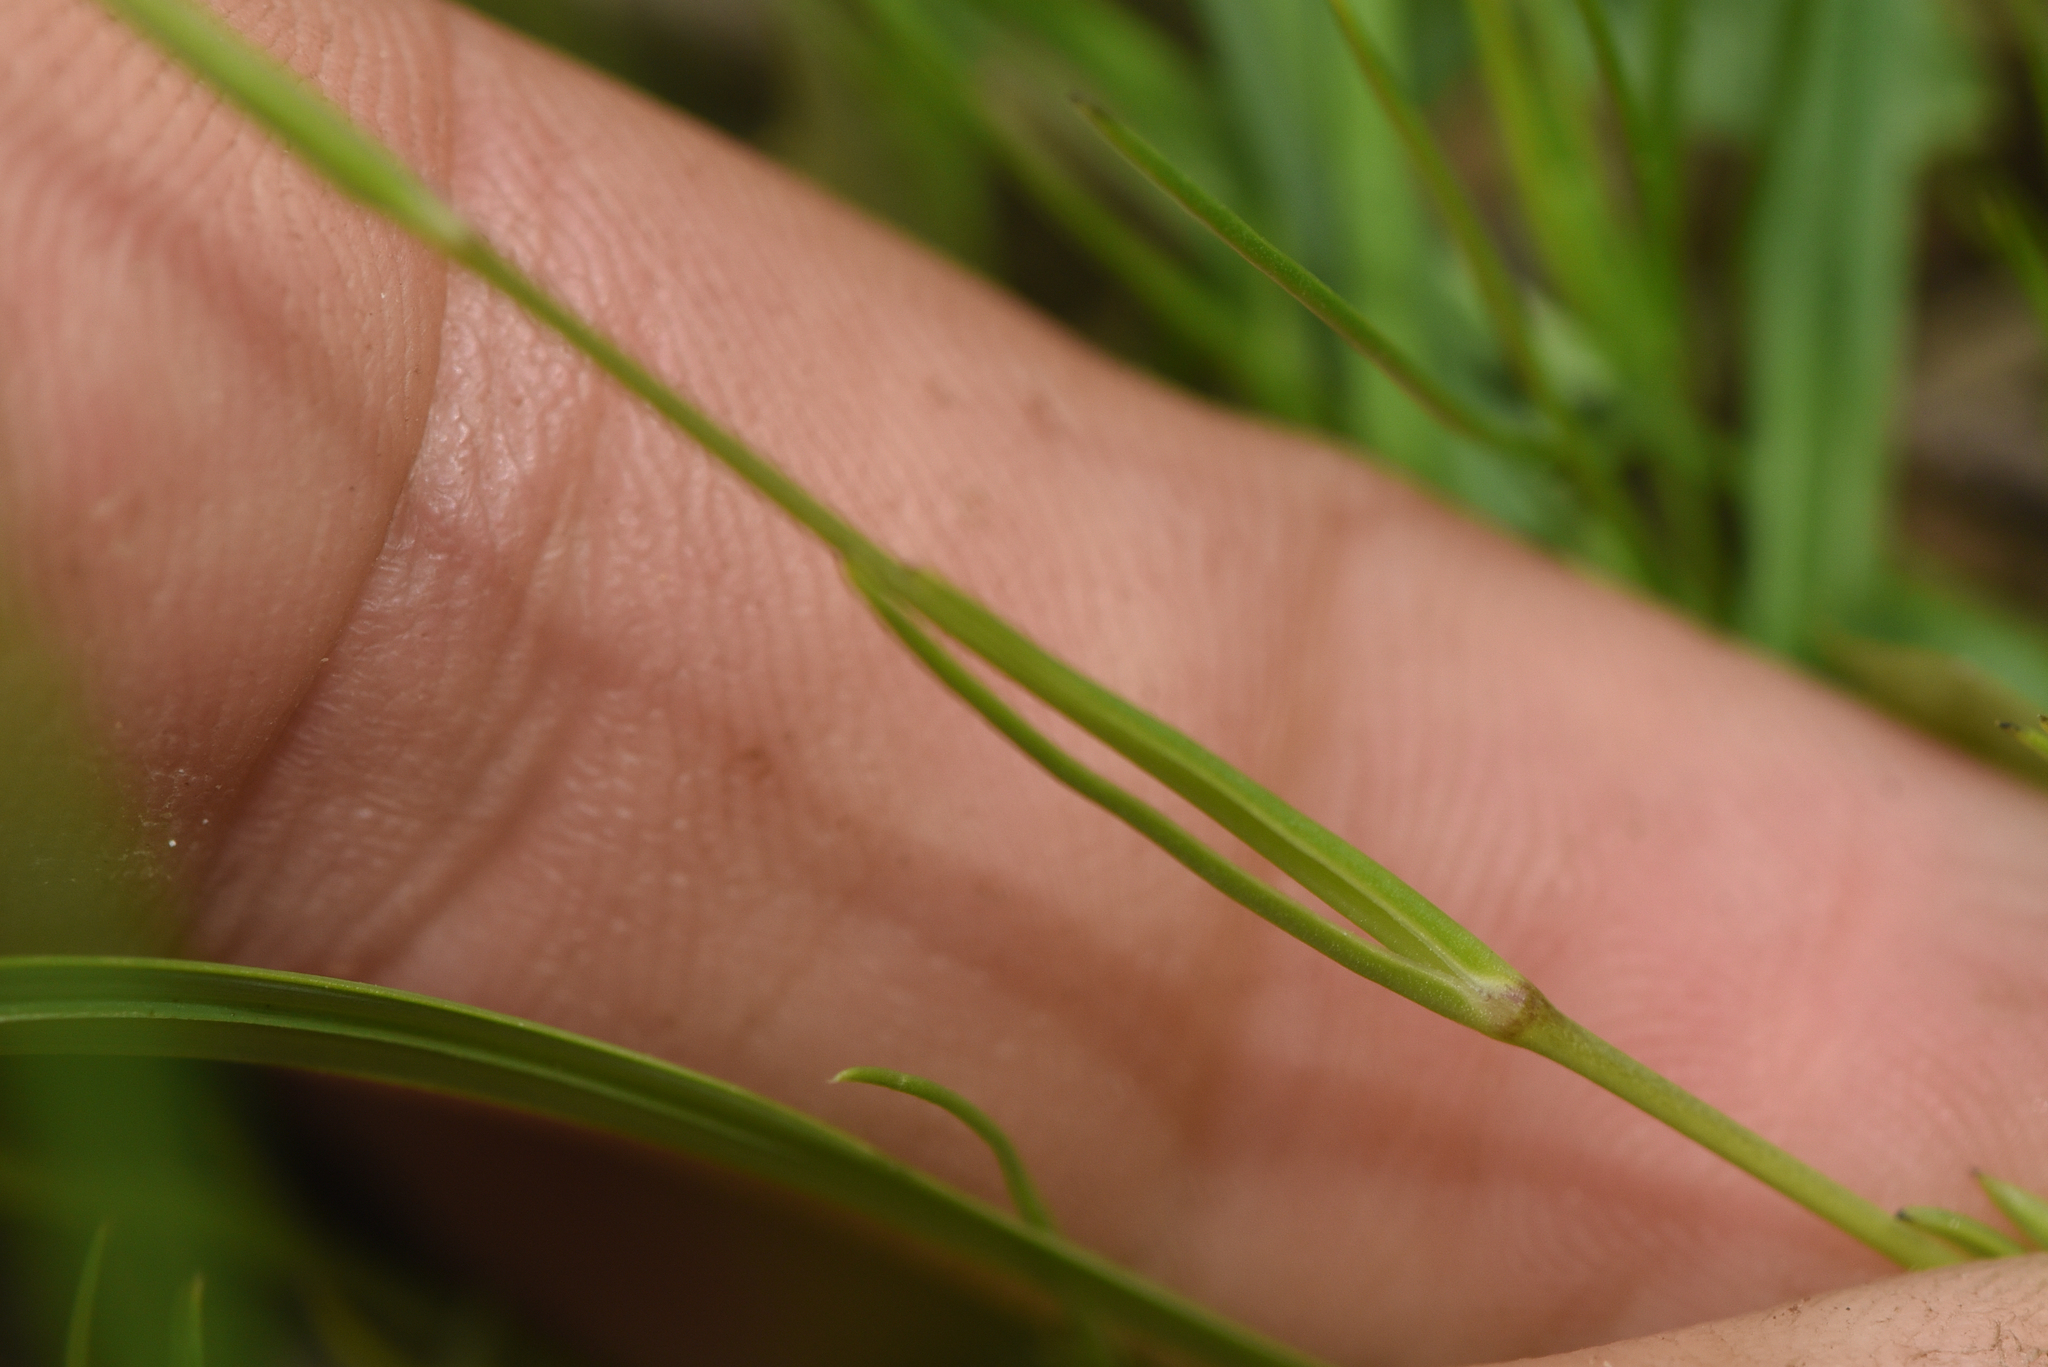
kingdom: Plantae
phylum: Tracheophyta
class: Magnoliopsida
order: Caryophyllales
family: Caryophyllaceae
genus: Eremogone
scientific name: Eremogone capillaris
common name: Slender mountain sandwort
